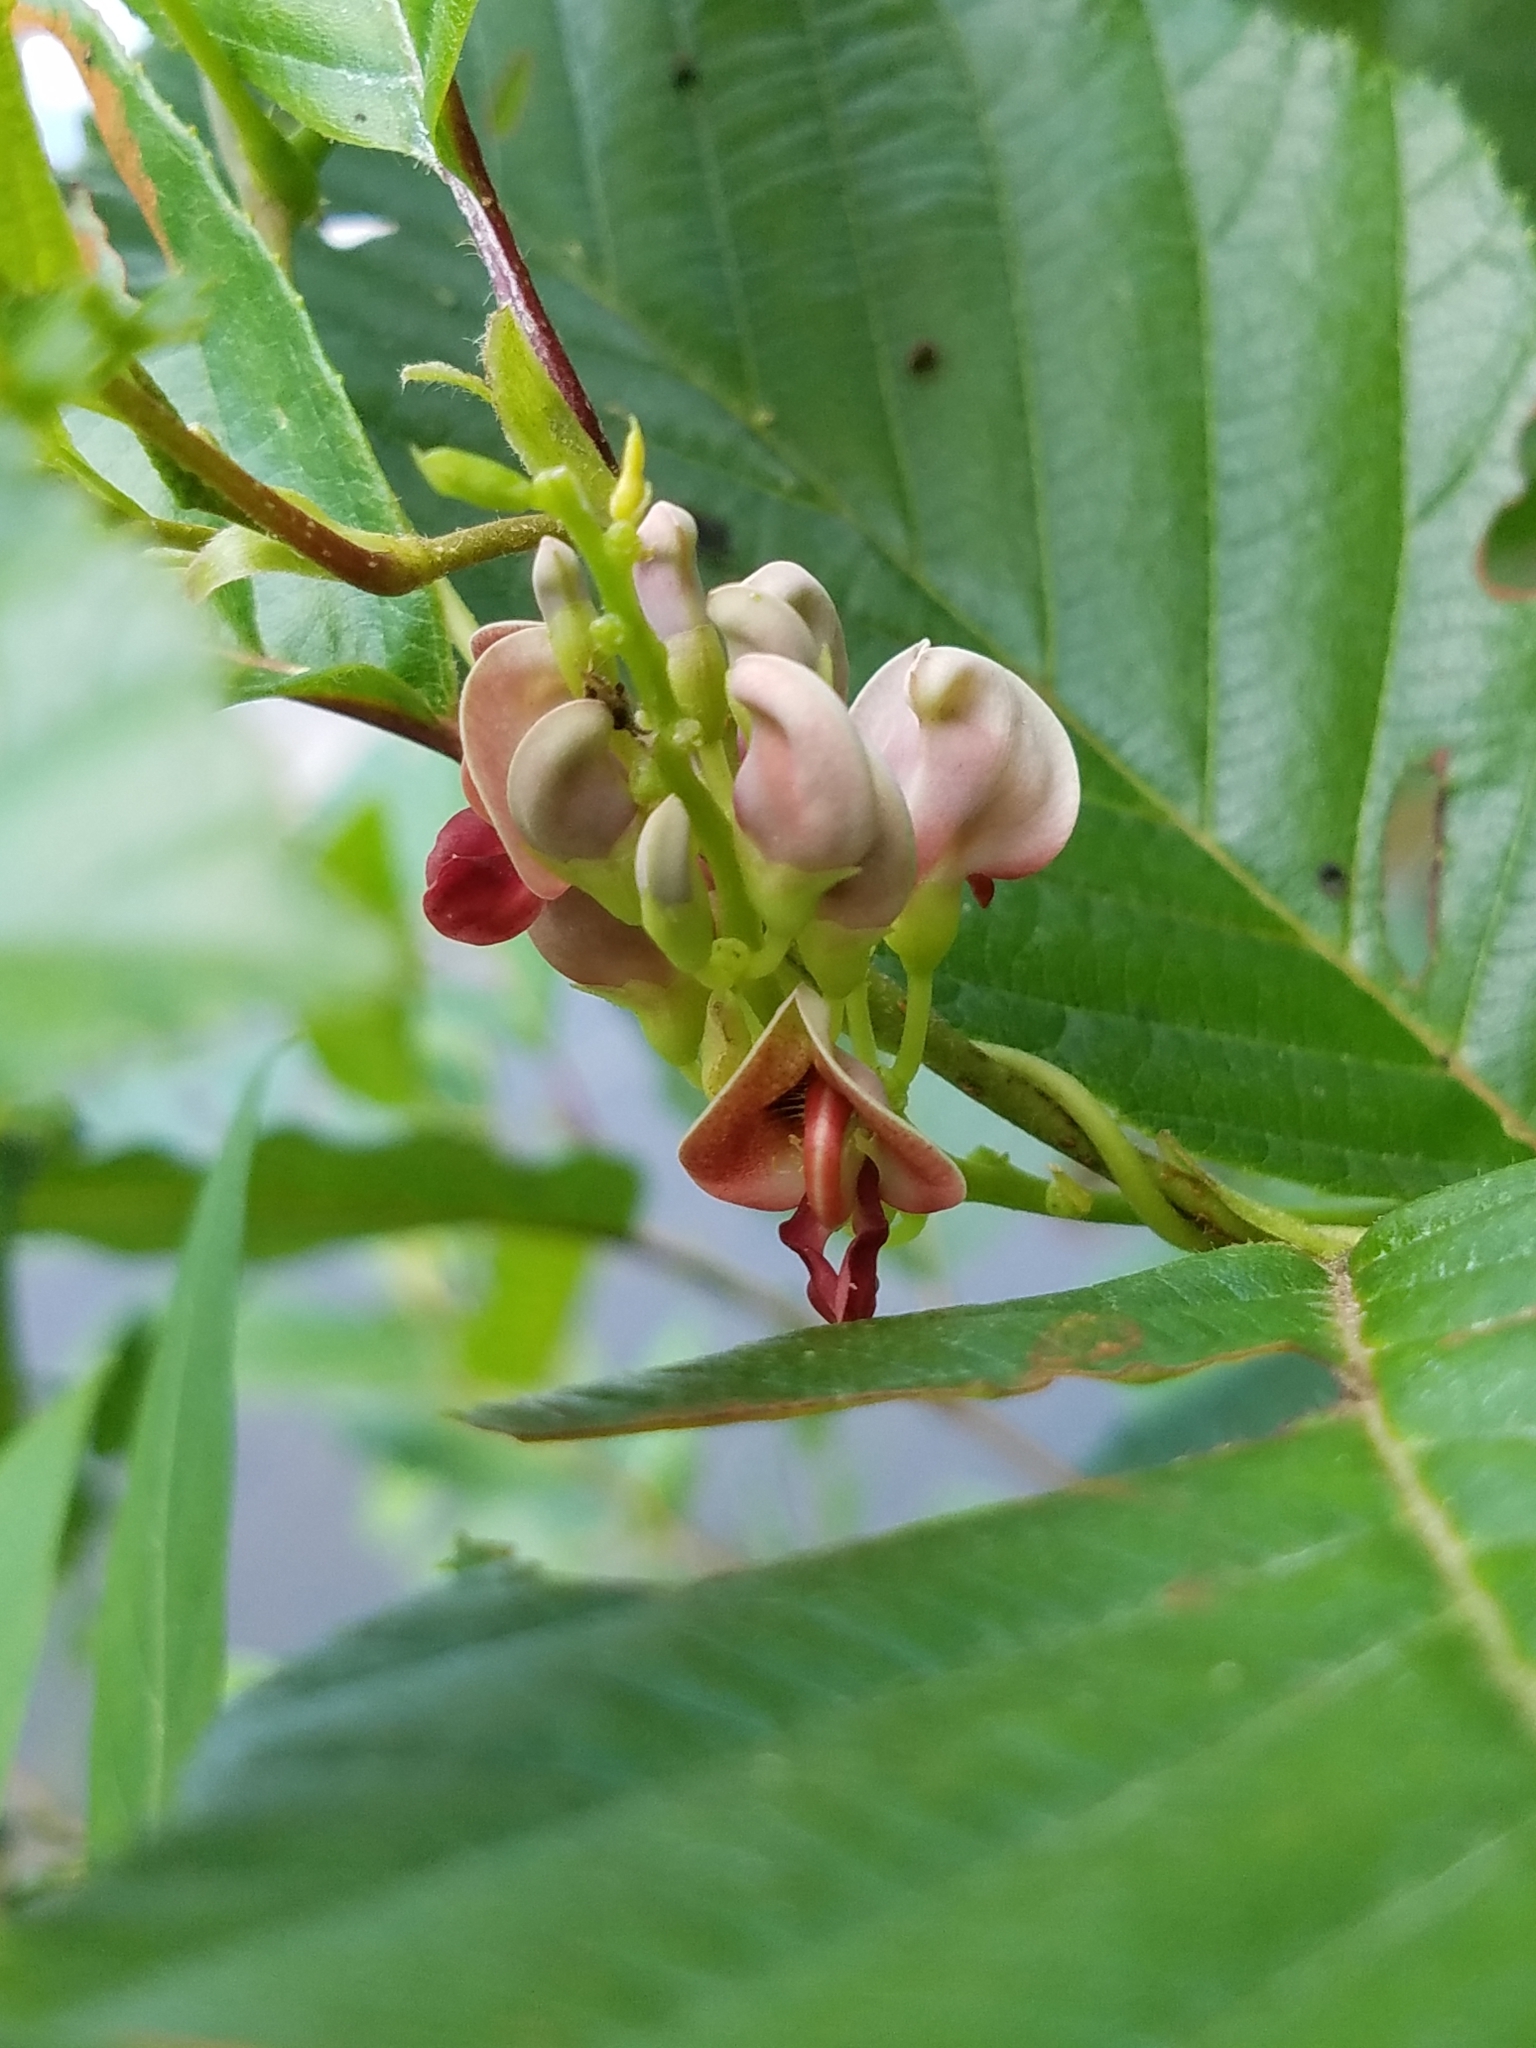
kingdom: Plantae
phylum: Tracheophyta
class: Magnoliopsida
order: Fabales
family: Fabaceae
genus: Apios
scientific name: Apios americana
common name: American potato-bean
